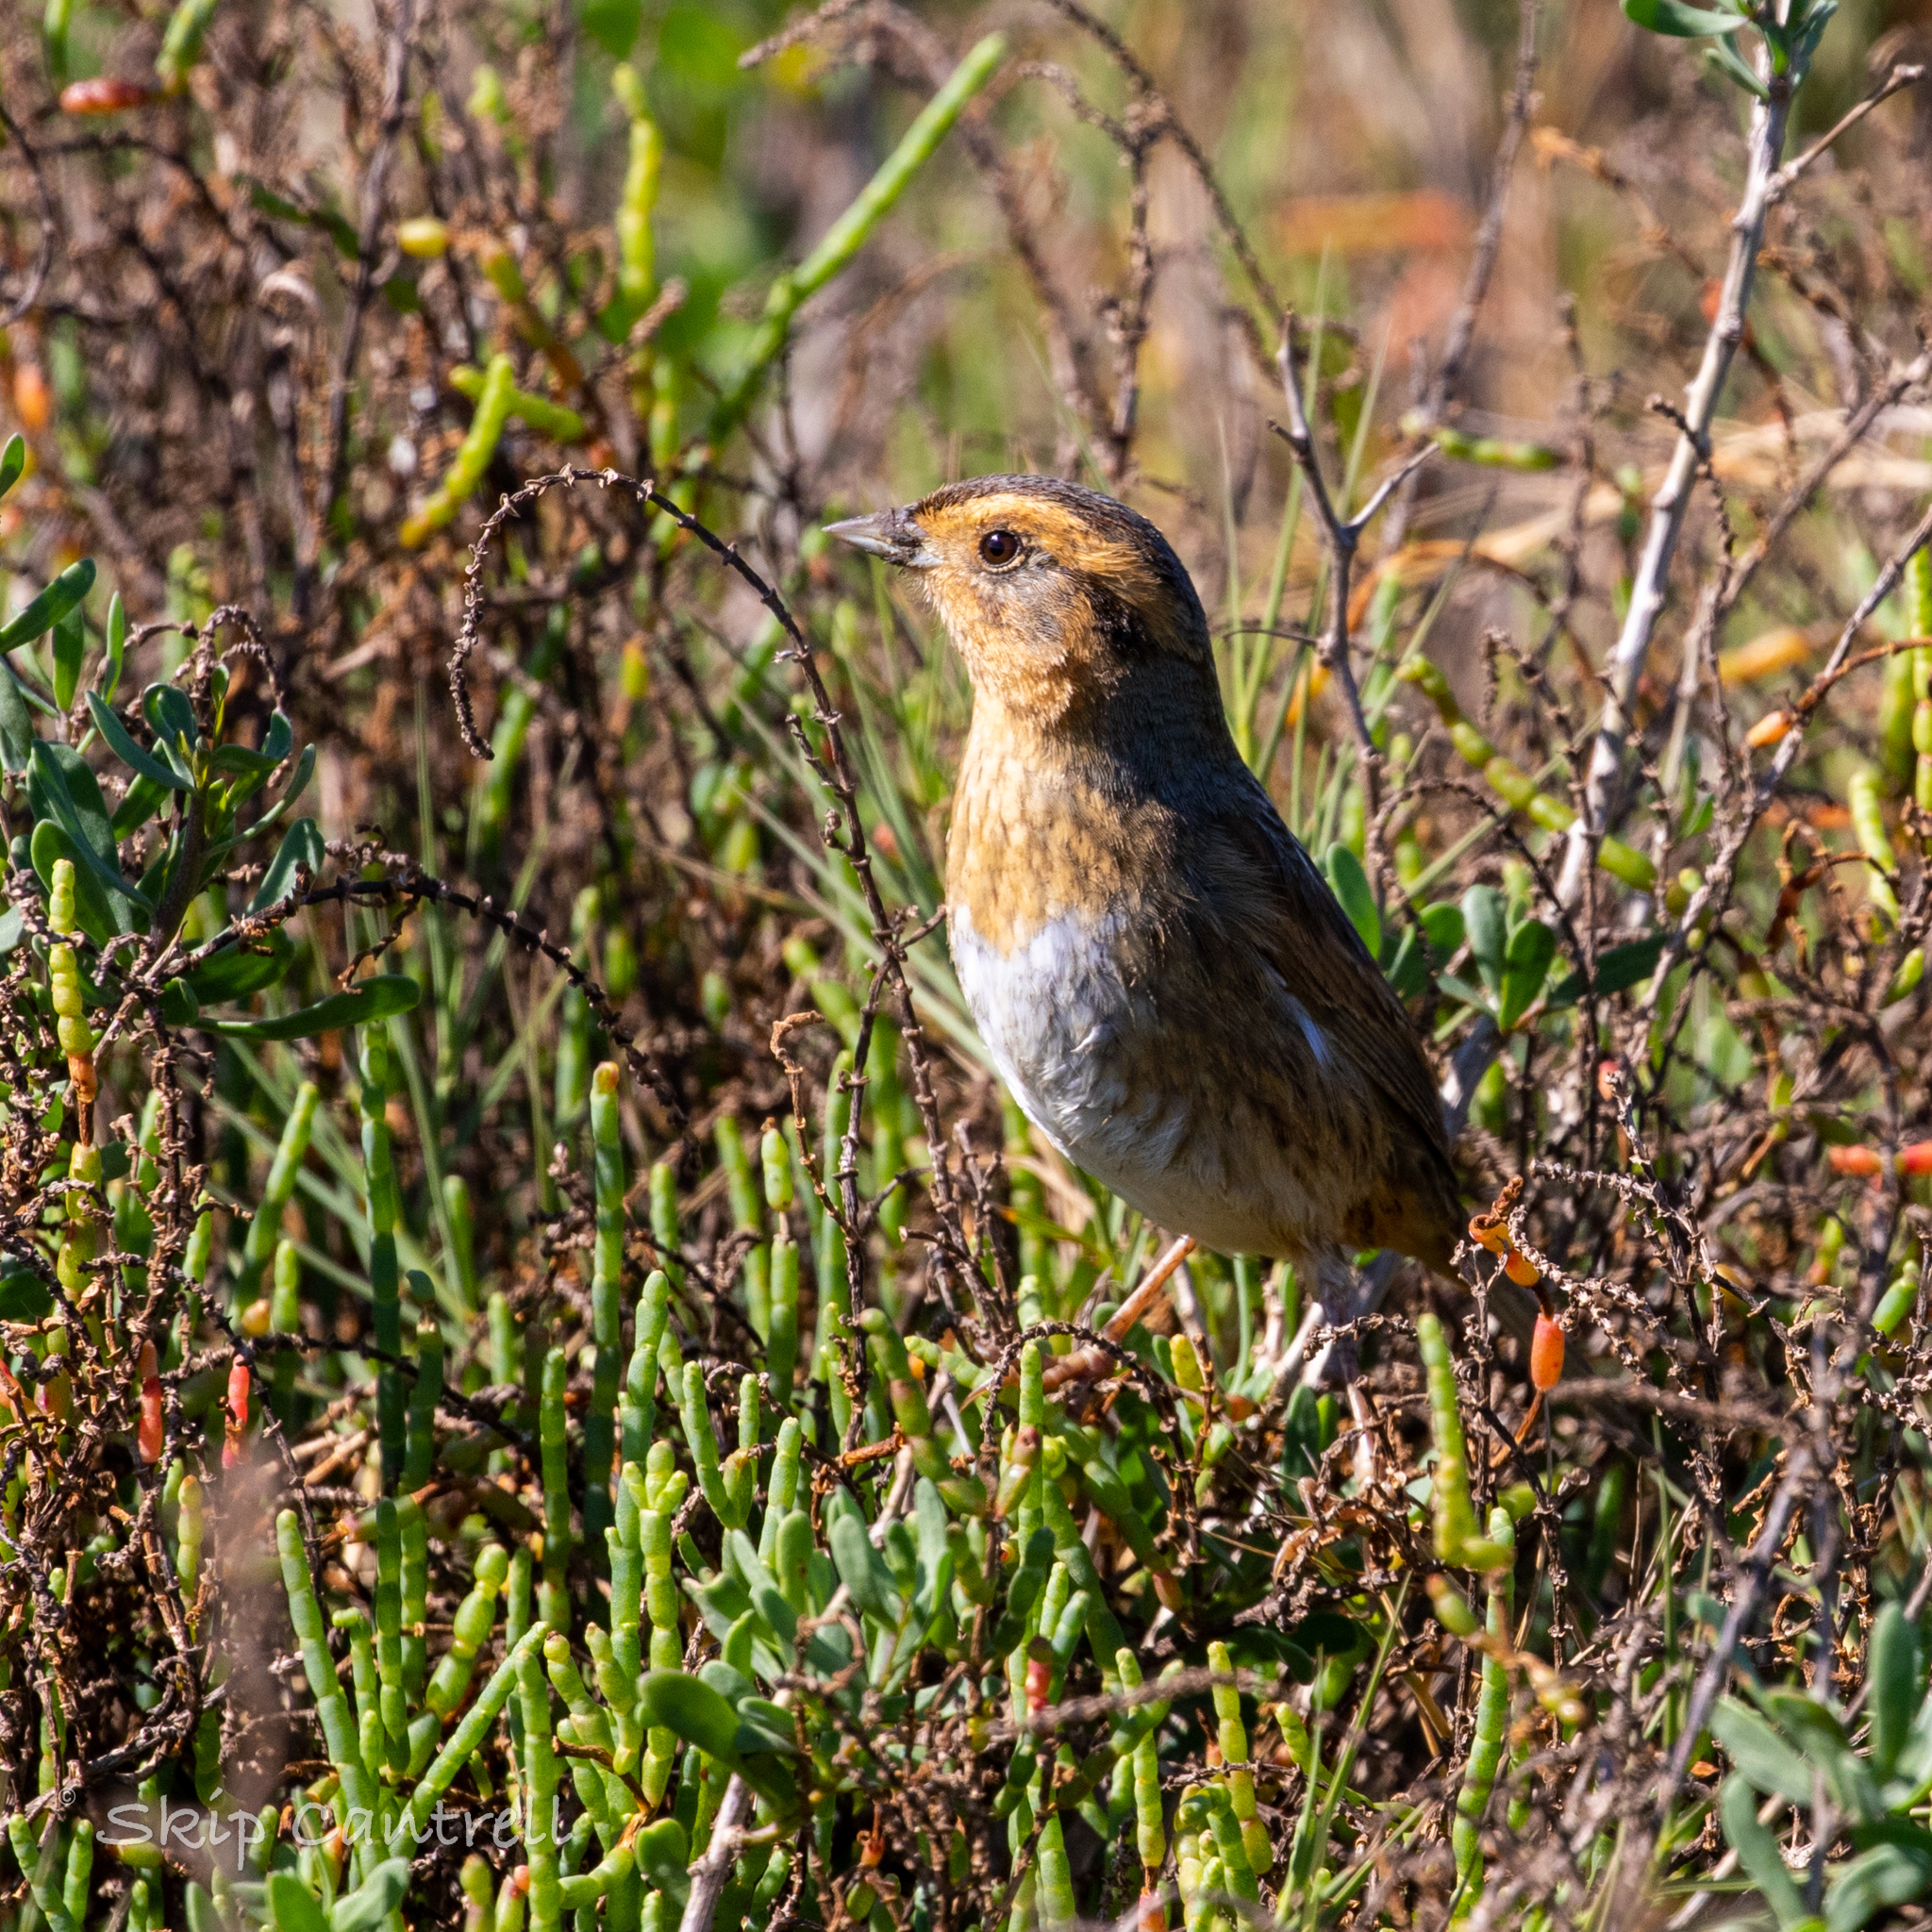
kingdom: Animalia
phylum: Chordata
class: Aves
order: Passeriformes
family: Passerellidae
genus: Ammospiza
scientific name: Ammospiza nelsoni
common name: Nelson's sparrow
